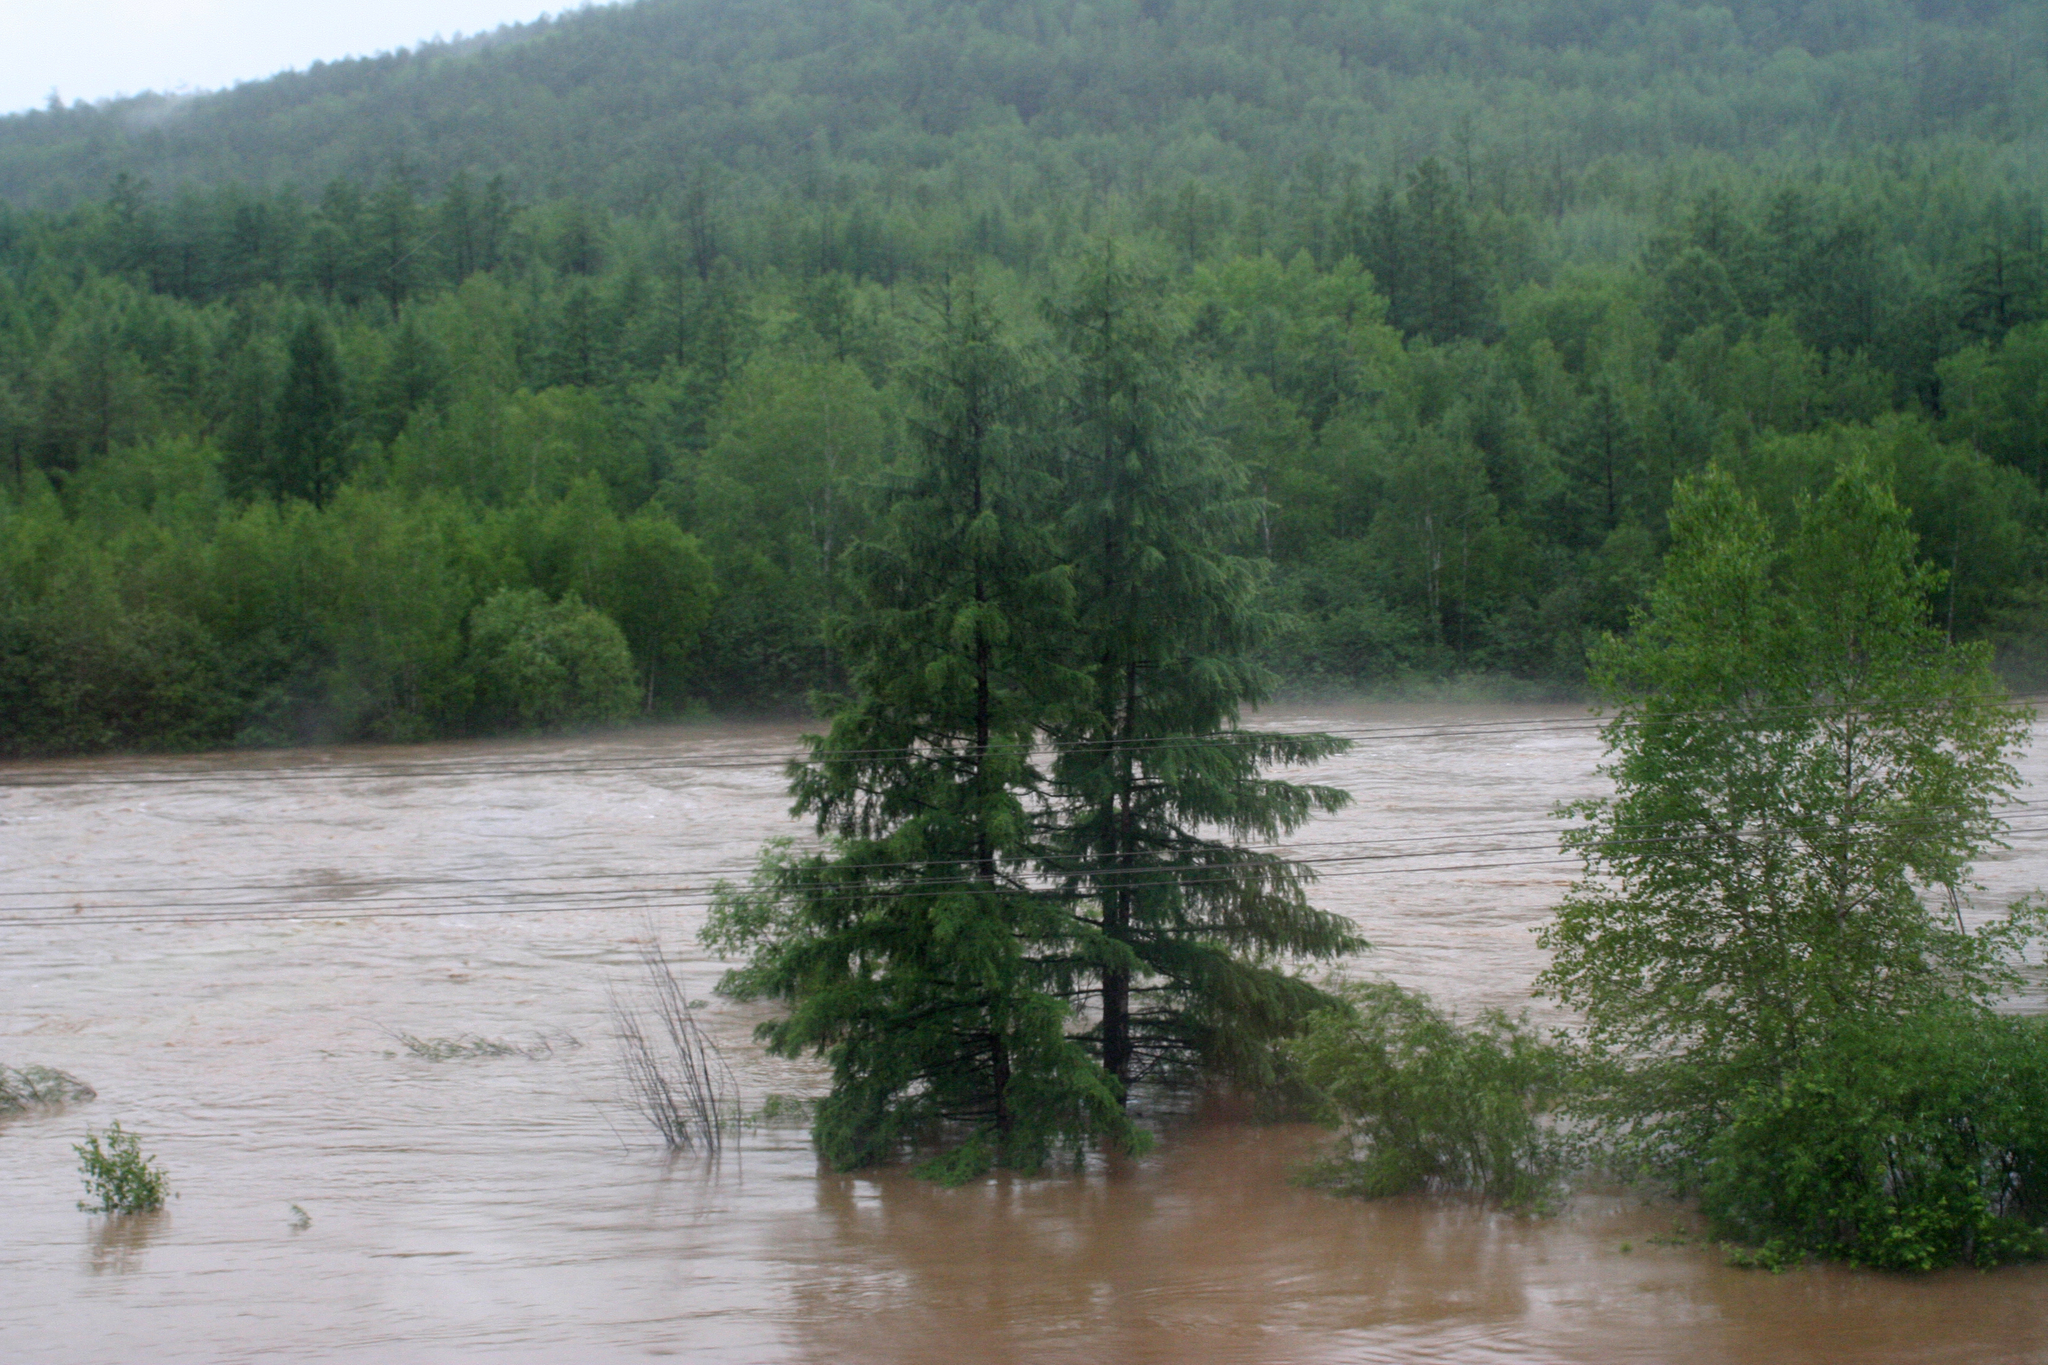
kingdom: Plantae
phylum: Tracheophyta
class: Pinopsida
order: Pinales
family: Pinaceae
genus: Larix
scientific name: Larix gmelinii
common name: Dahurian larch
